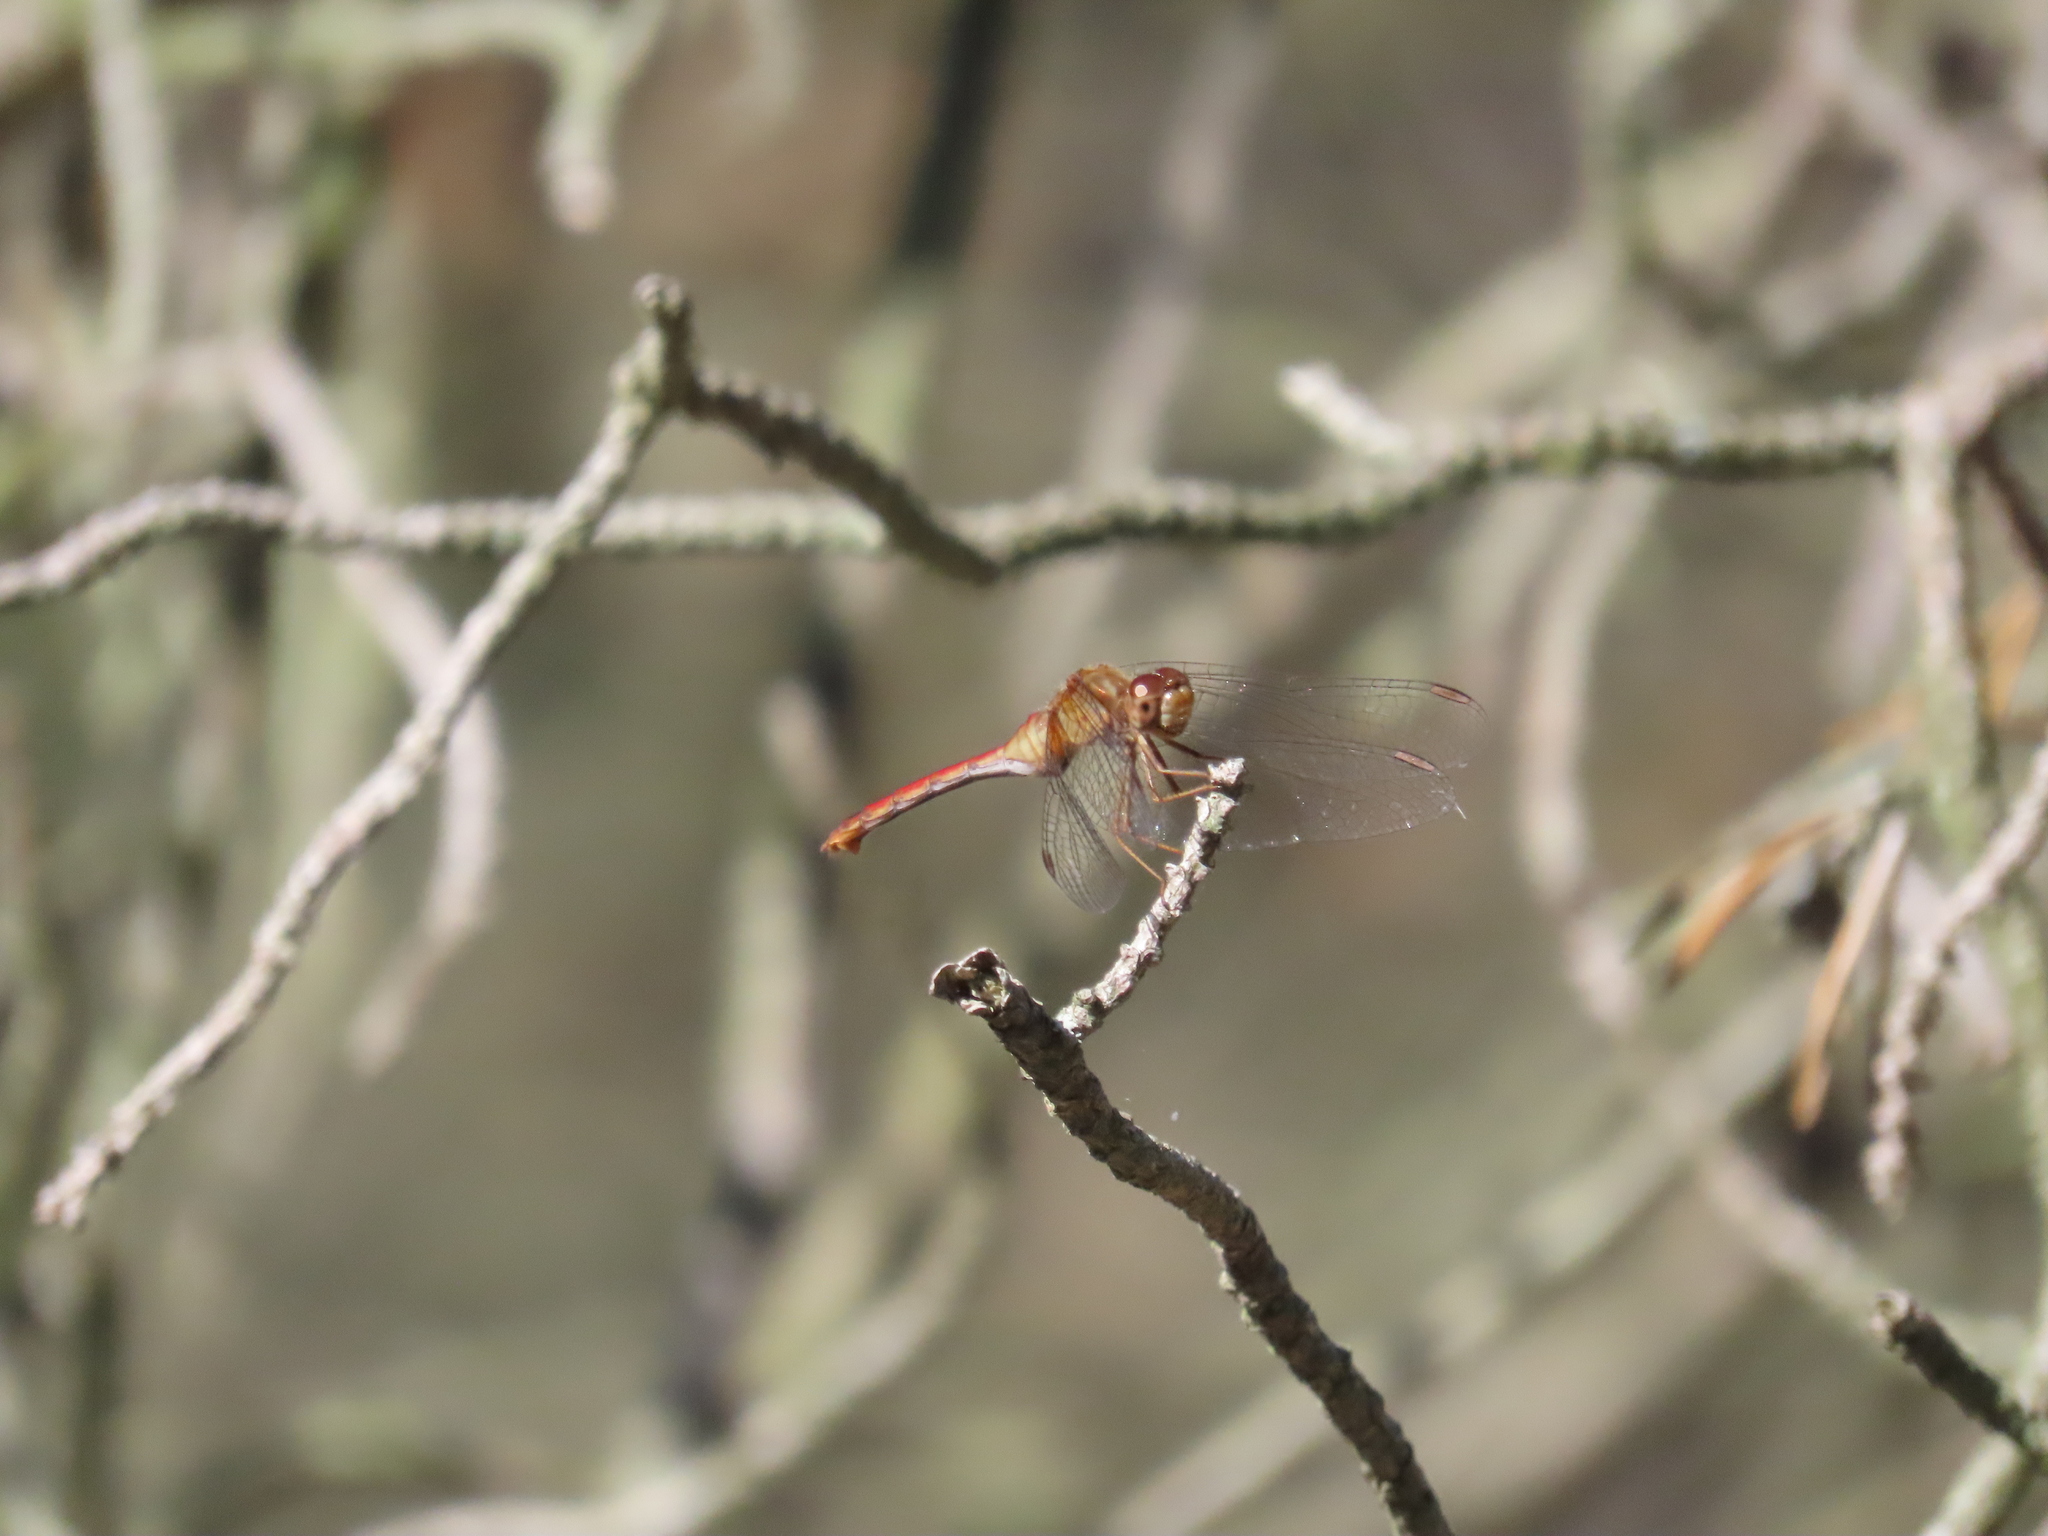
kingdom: Animalia
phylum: Arthropoda
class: Insecta
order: Odonata
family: Libellulidae
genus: Sympetrum
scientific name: Sympetrum vicinum
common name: Autumn meadowhawk
